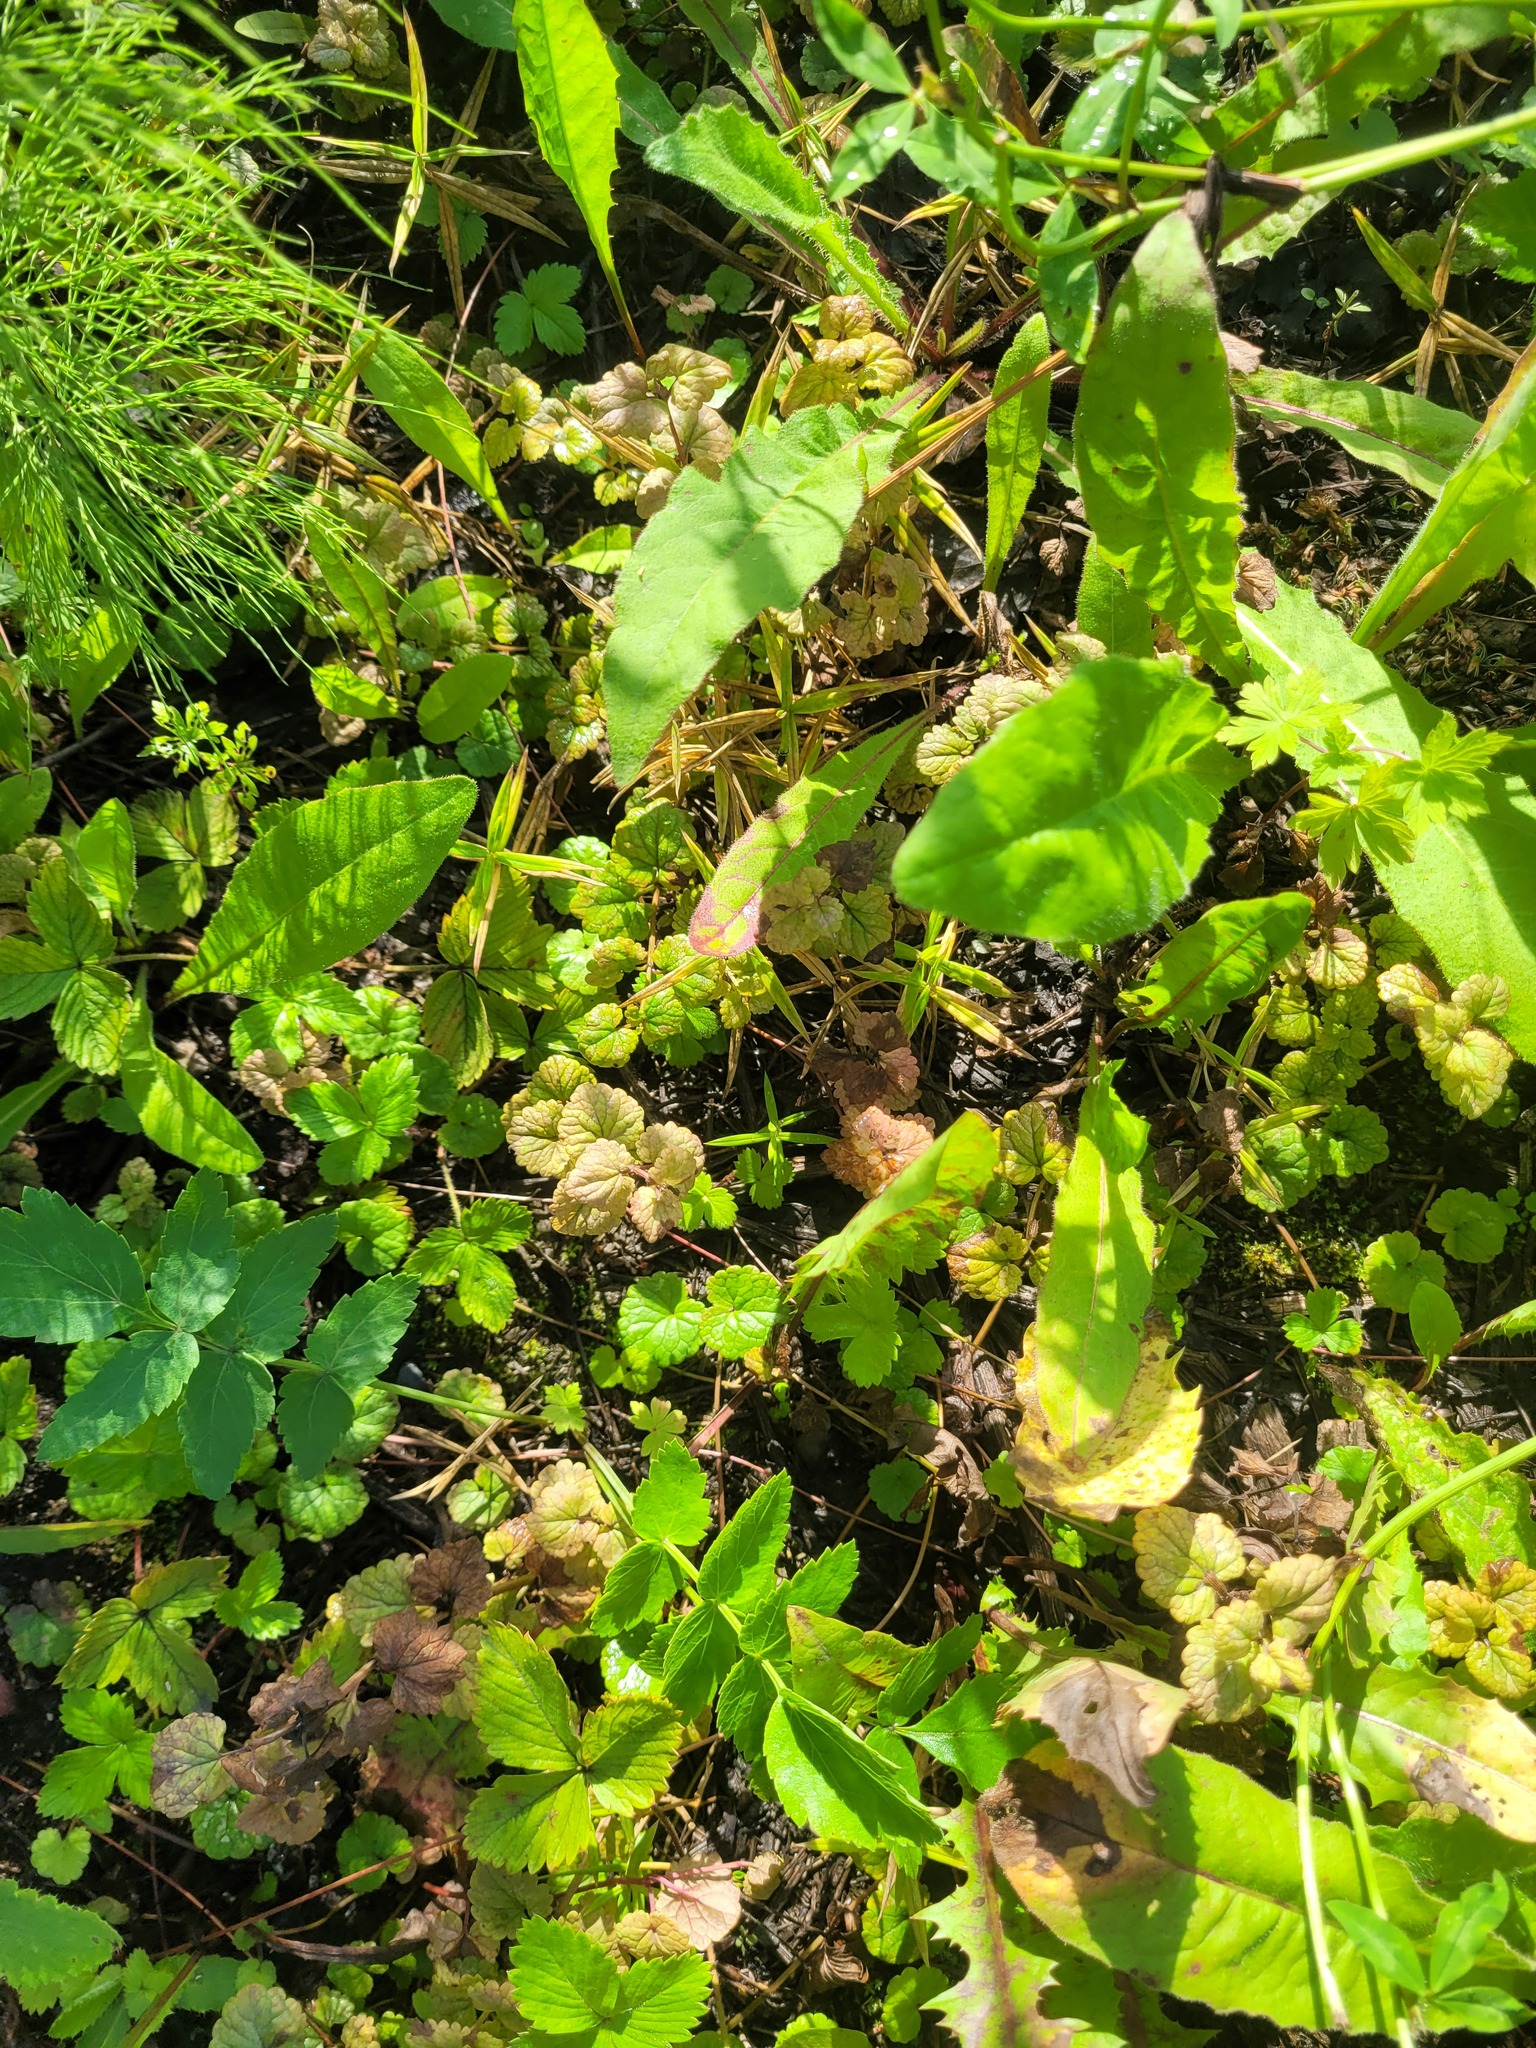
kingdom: Plantae
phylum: Tracheophyta
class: Magnoliopsida
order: Lamiales
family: Lamiaceae
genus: Glechoma
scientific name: Glechoma hederacea
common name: Ground ivy
